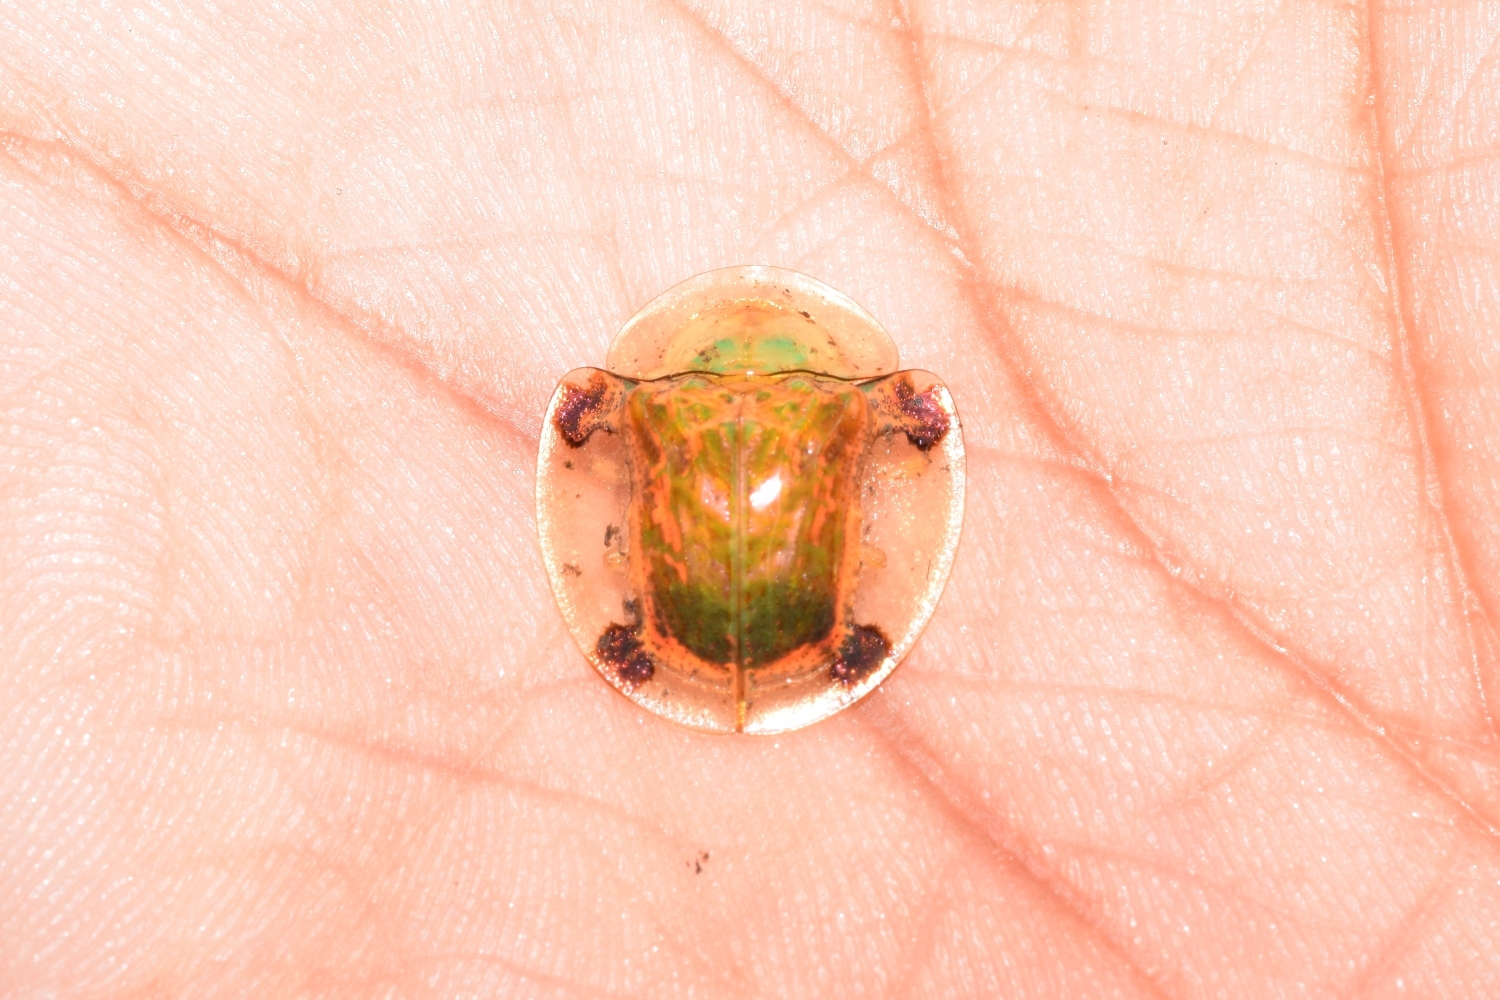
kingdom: Animalia
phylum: Arthropoda
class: Insecta
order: Coleoptera
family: Chrysomelidae
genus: Aspidimorpha
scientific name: Aspidimorpha sanctaecrucis
